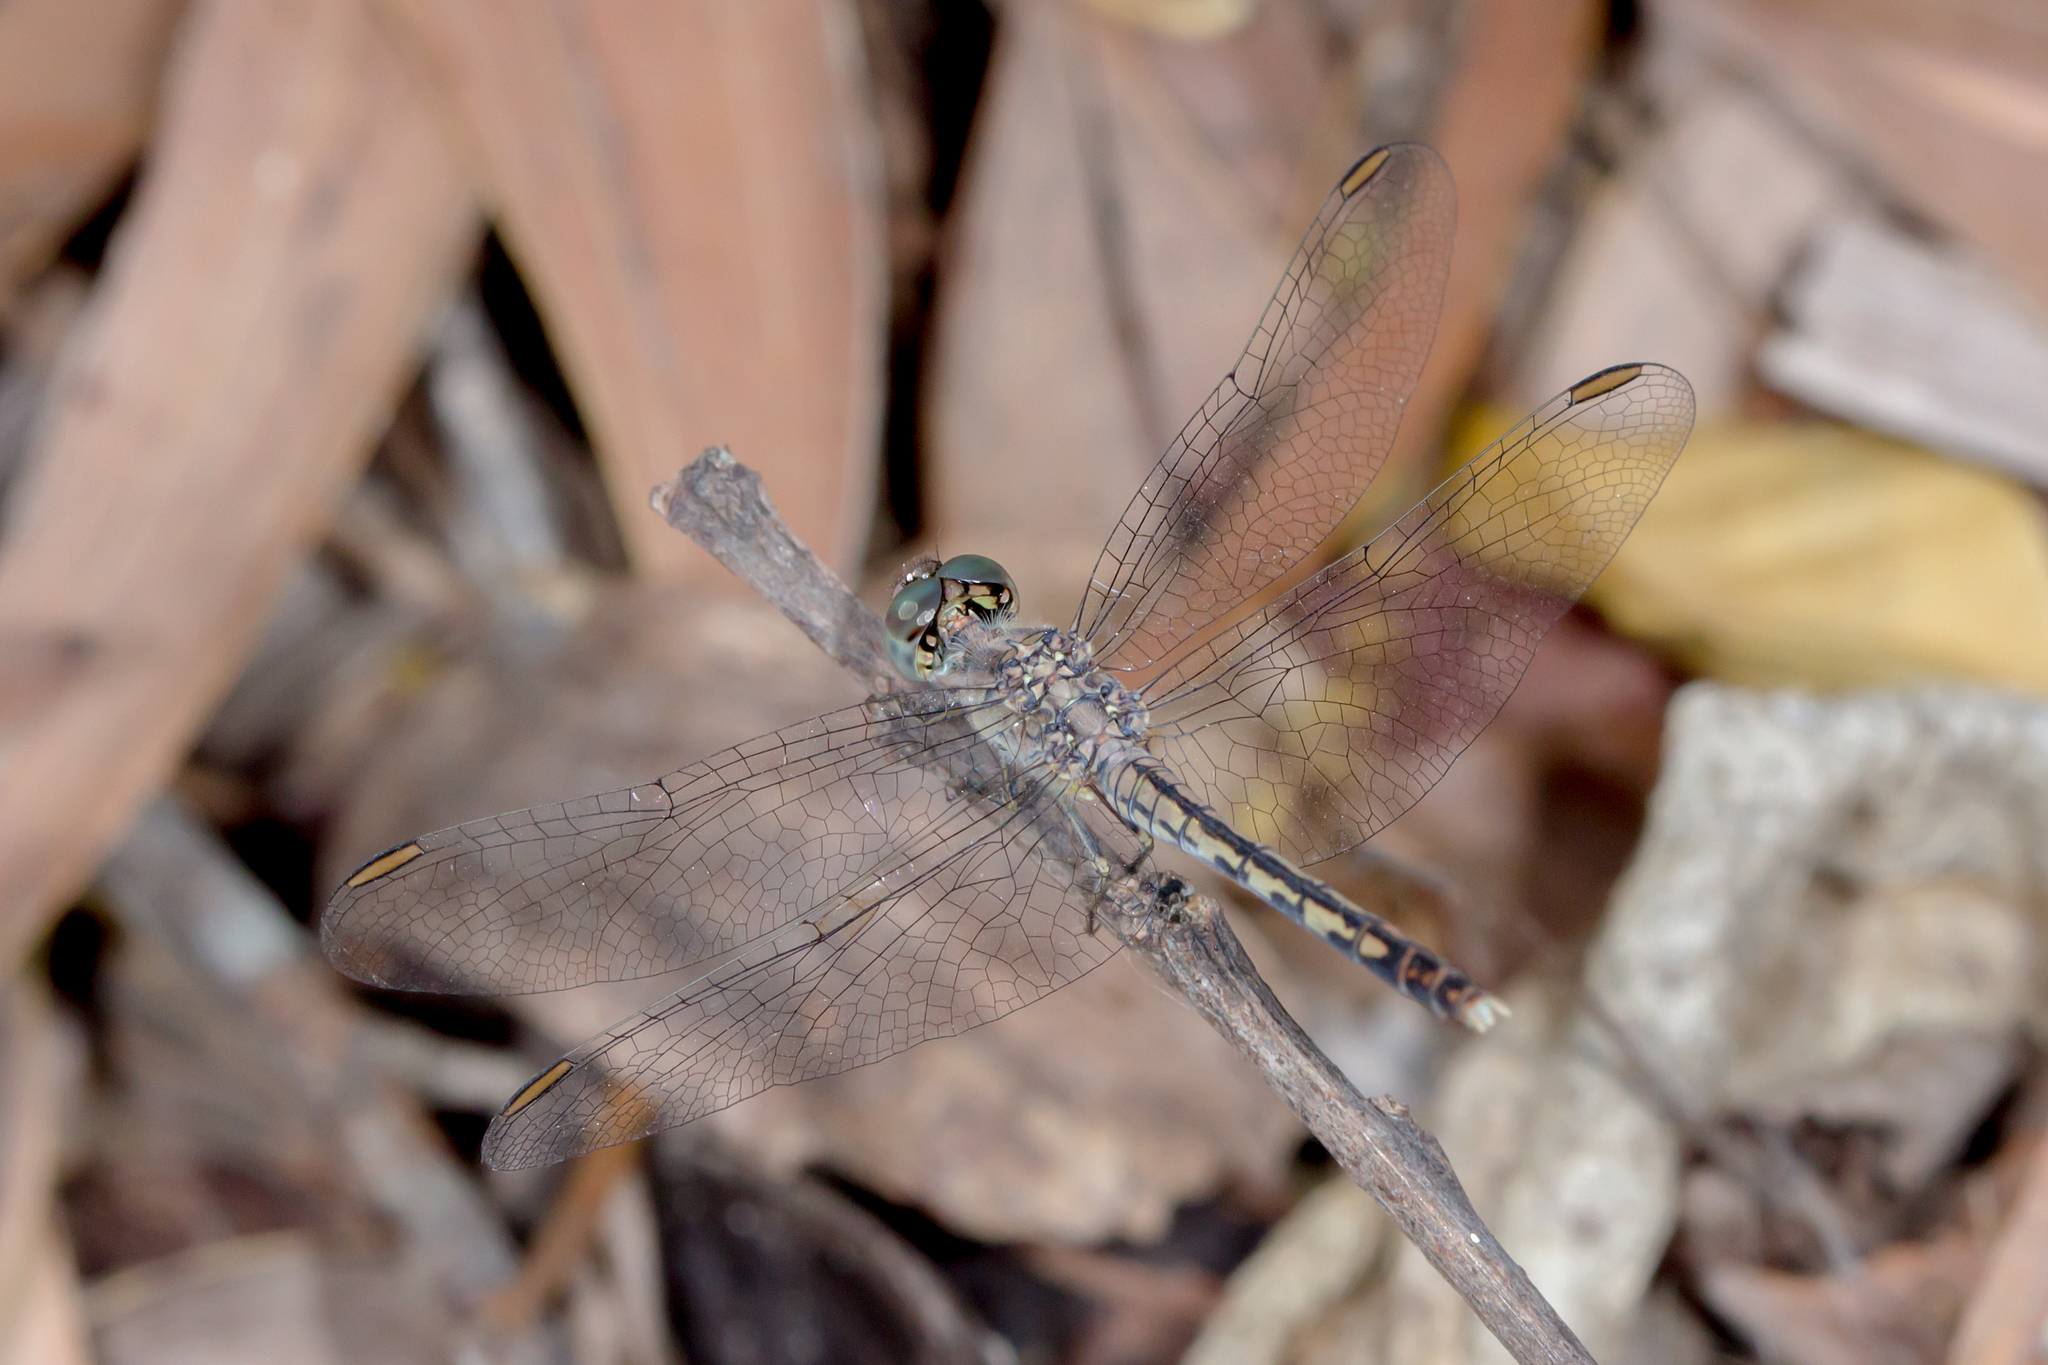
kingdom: Animalia
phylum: Arthropoda
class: Insecta
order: Odonata
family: Libellulidae
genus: Diplacodes
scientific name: Diplacodes trivialis
